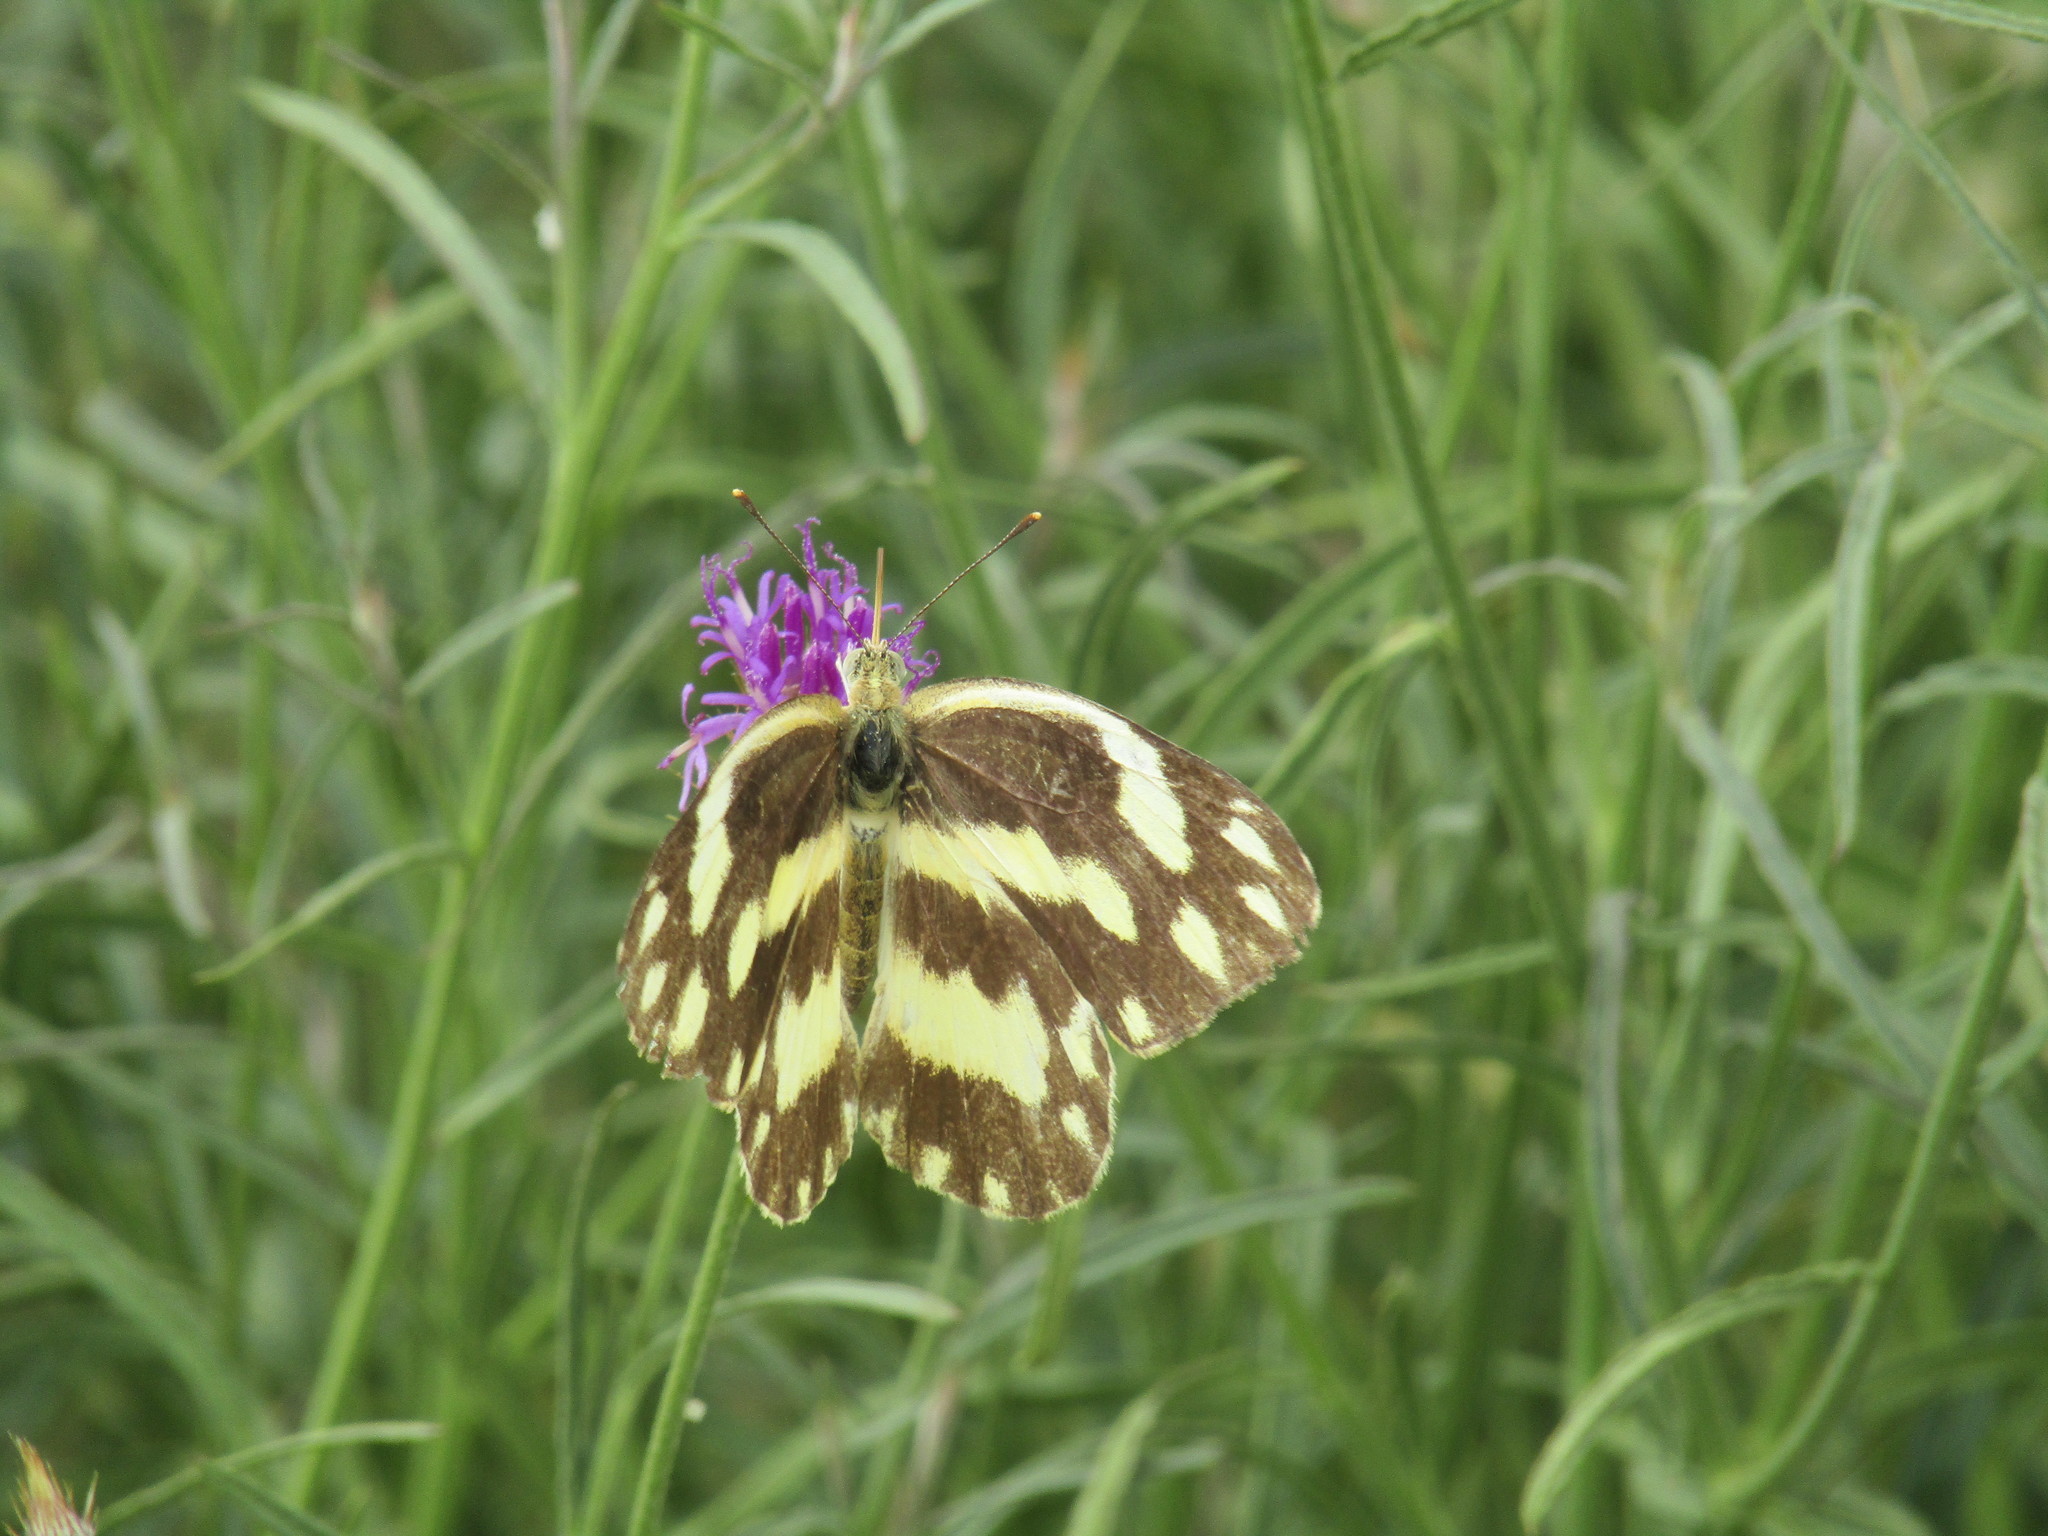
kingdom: Animalia
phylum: Arthropoda
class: Insecta
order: Lepidoptera
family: Pieridae
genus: Pinacopteryx
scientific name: Pinacopteryx eriphia
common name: Zebra white
